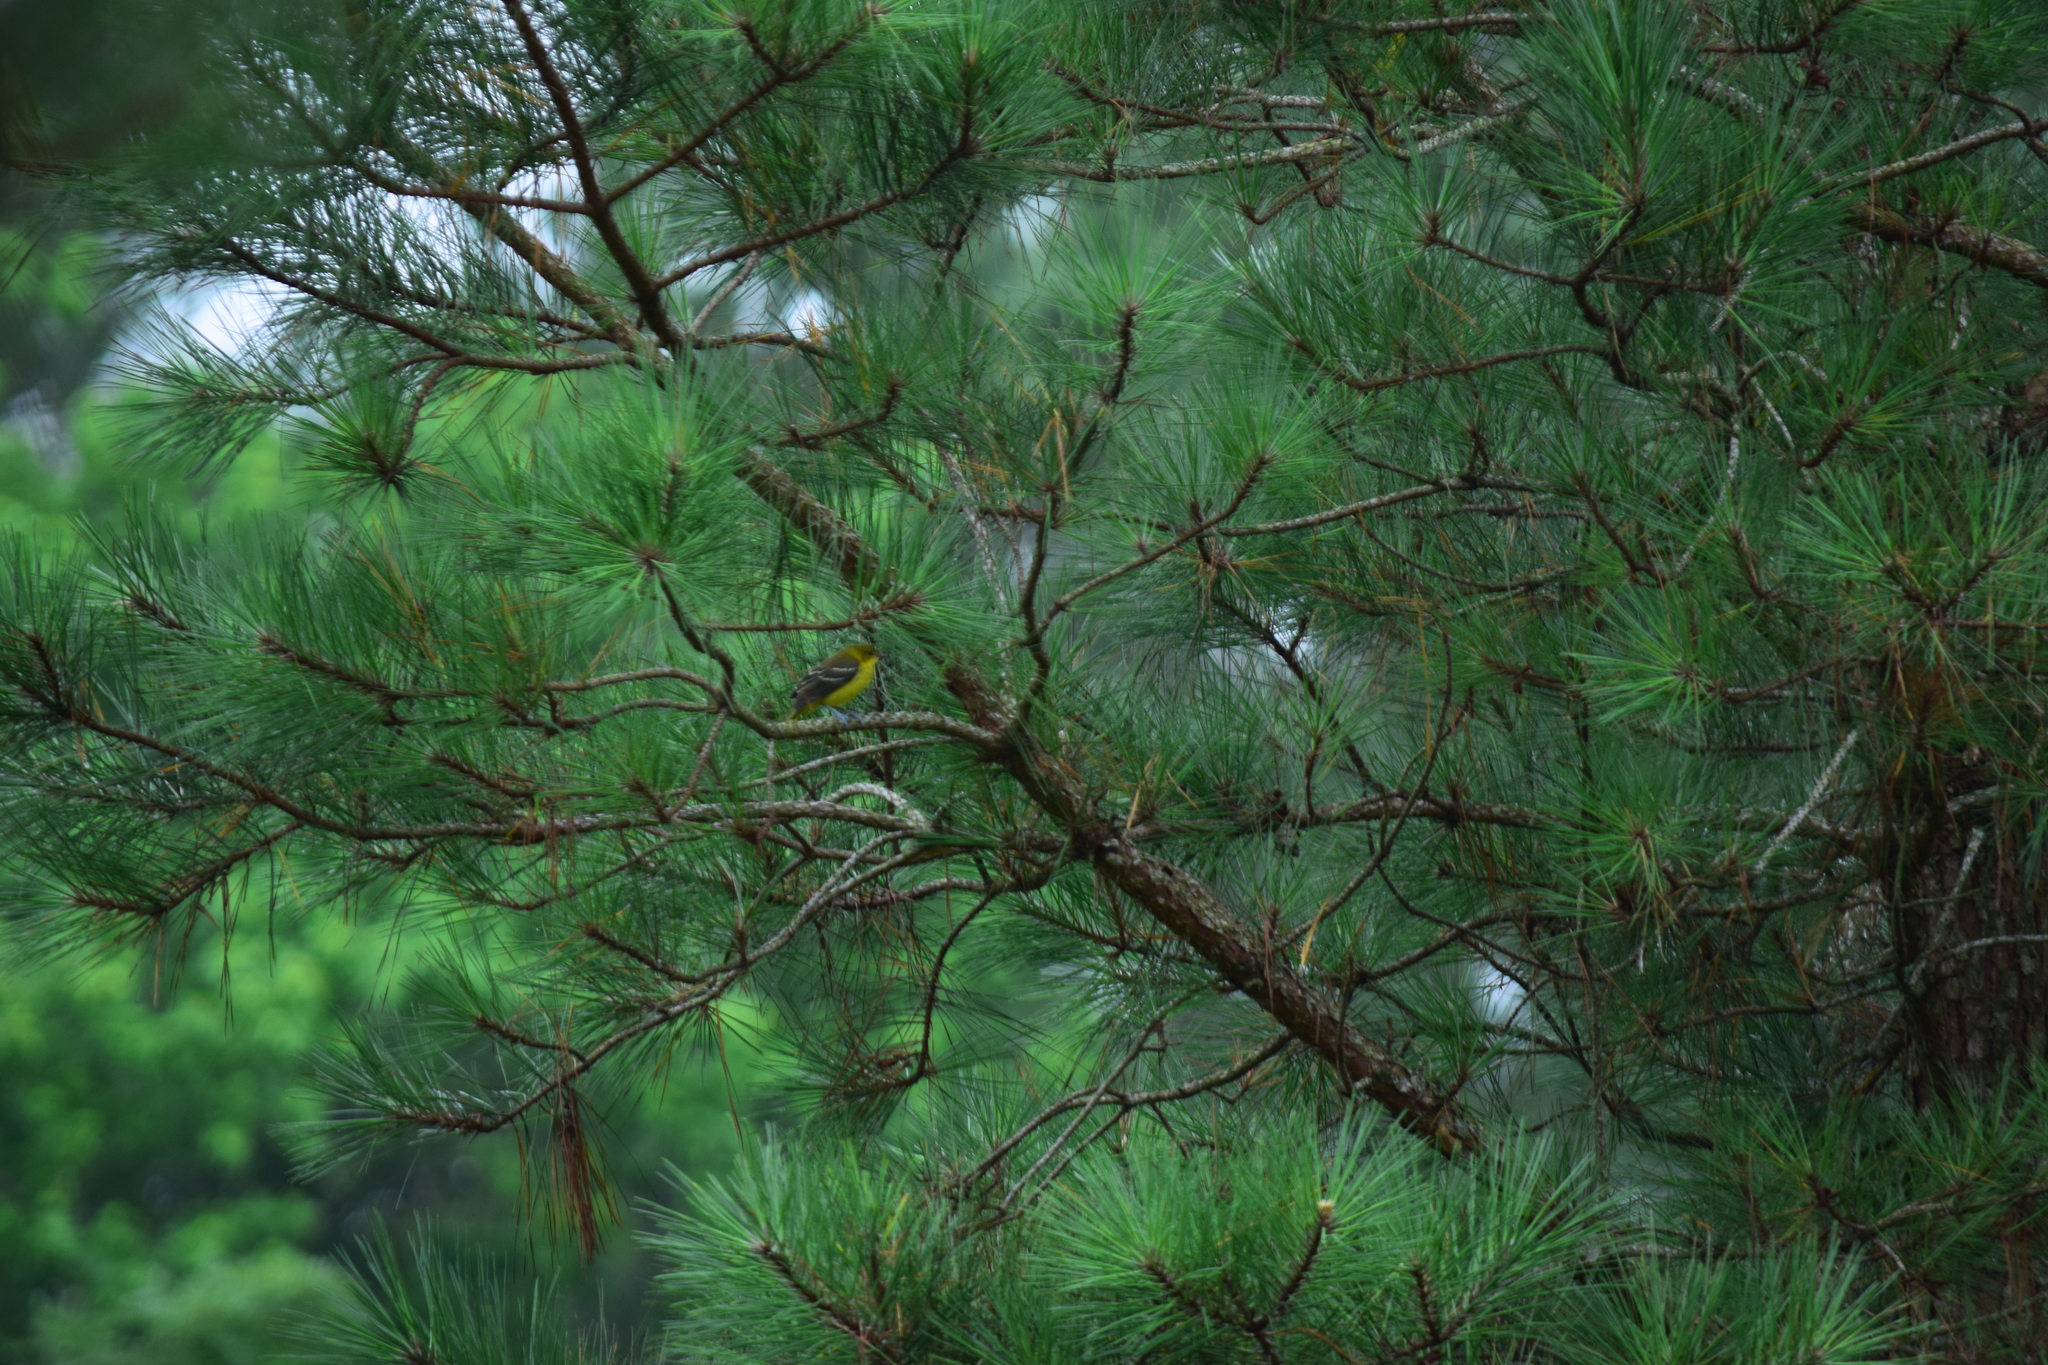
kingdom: Animalia
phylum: Chordata
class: Aves
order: Passeriformes
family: Parulidae
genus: Setophaga
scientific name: Setophaga pinus
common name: Pine warbler
